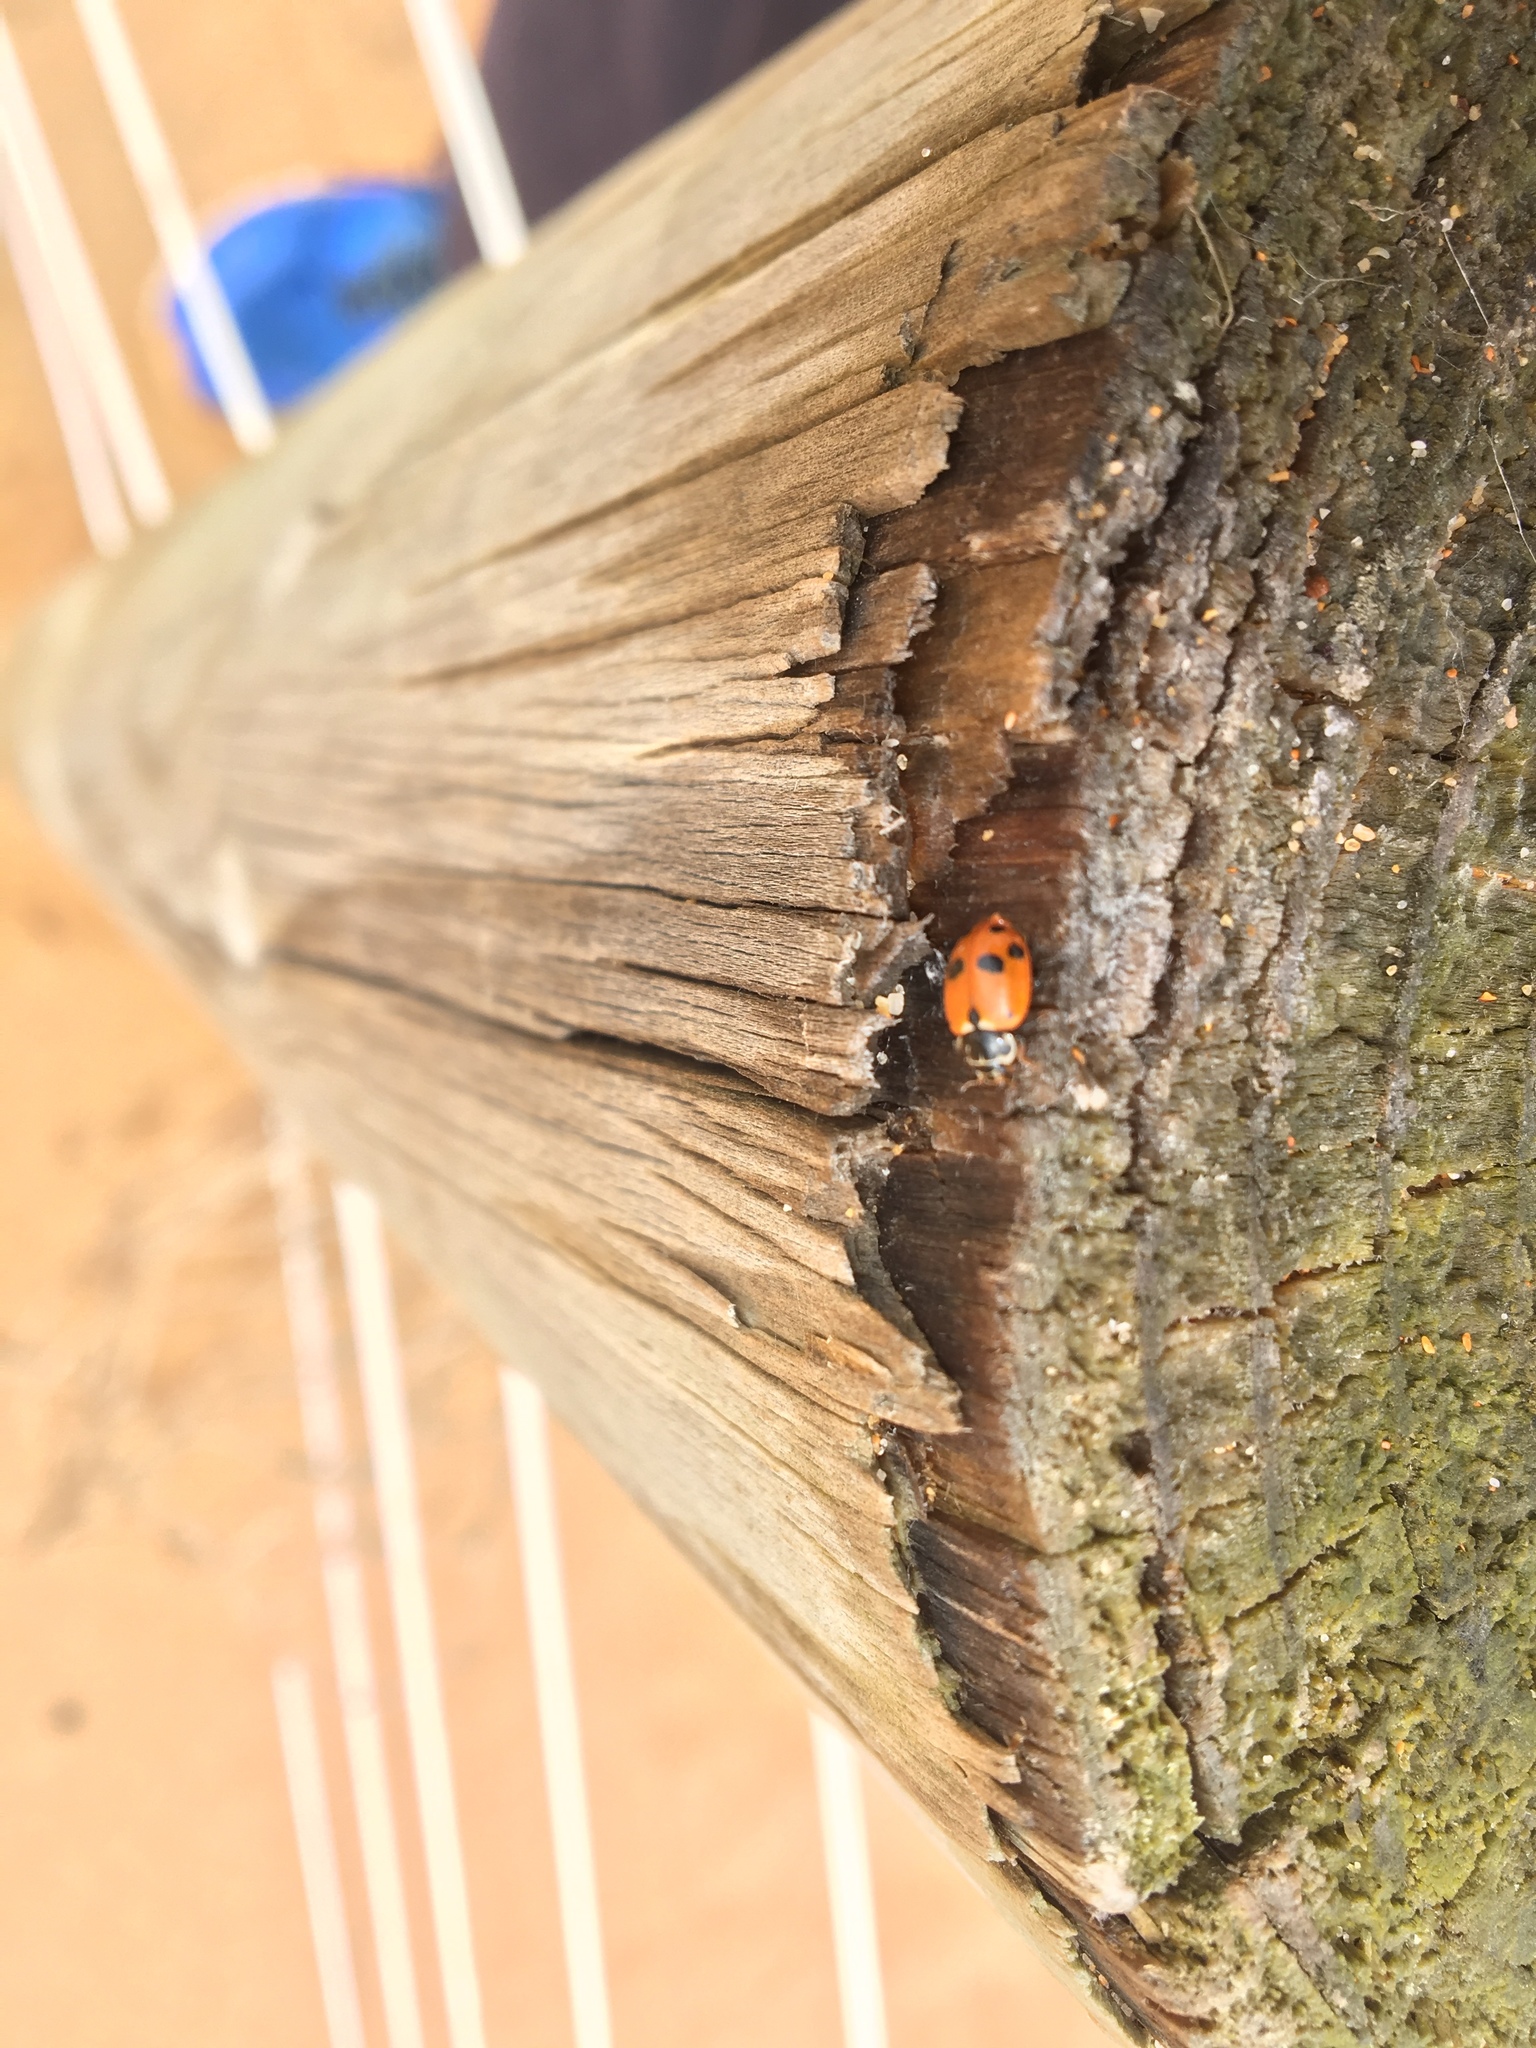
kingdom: Animalia
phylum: Arthropoda
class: Insecta
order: Coleoptera
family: Coccinellidae
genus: Hippodamia
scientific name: Hippodamia variegata
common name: Ladybird beetle
